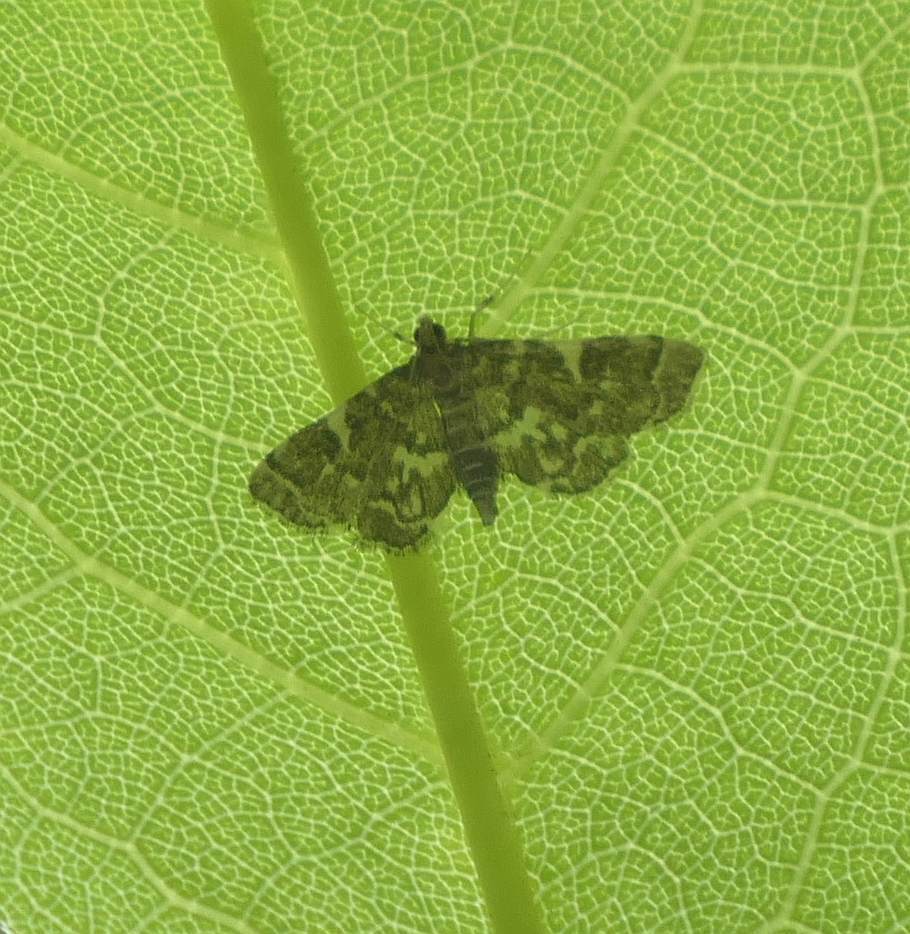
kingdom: Animalia
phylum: Arthropoda
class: Insecta
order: Lepidoptera
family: Crambidae
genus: Anageshna
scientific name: Anageshna primordialis
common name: Yellow-spotted webworm moth
